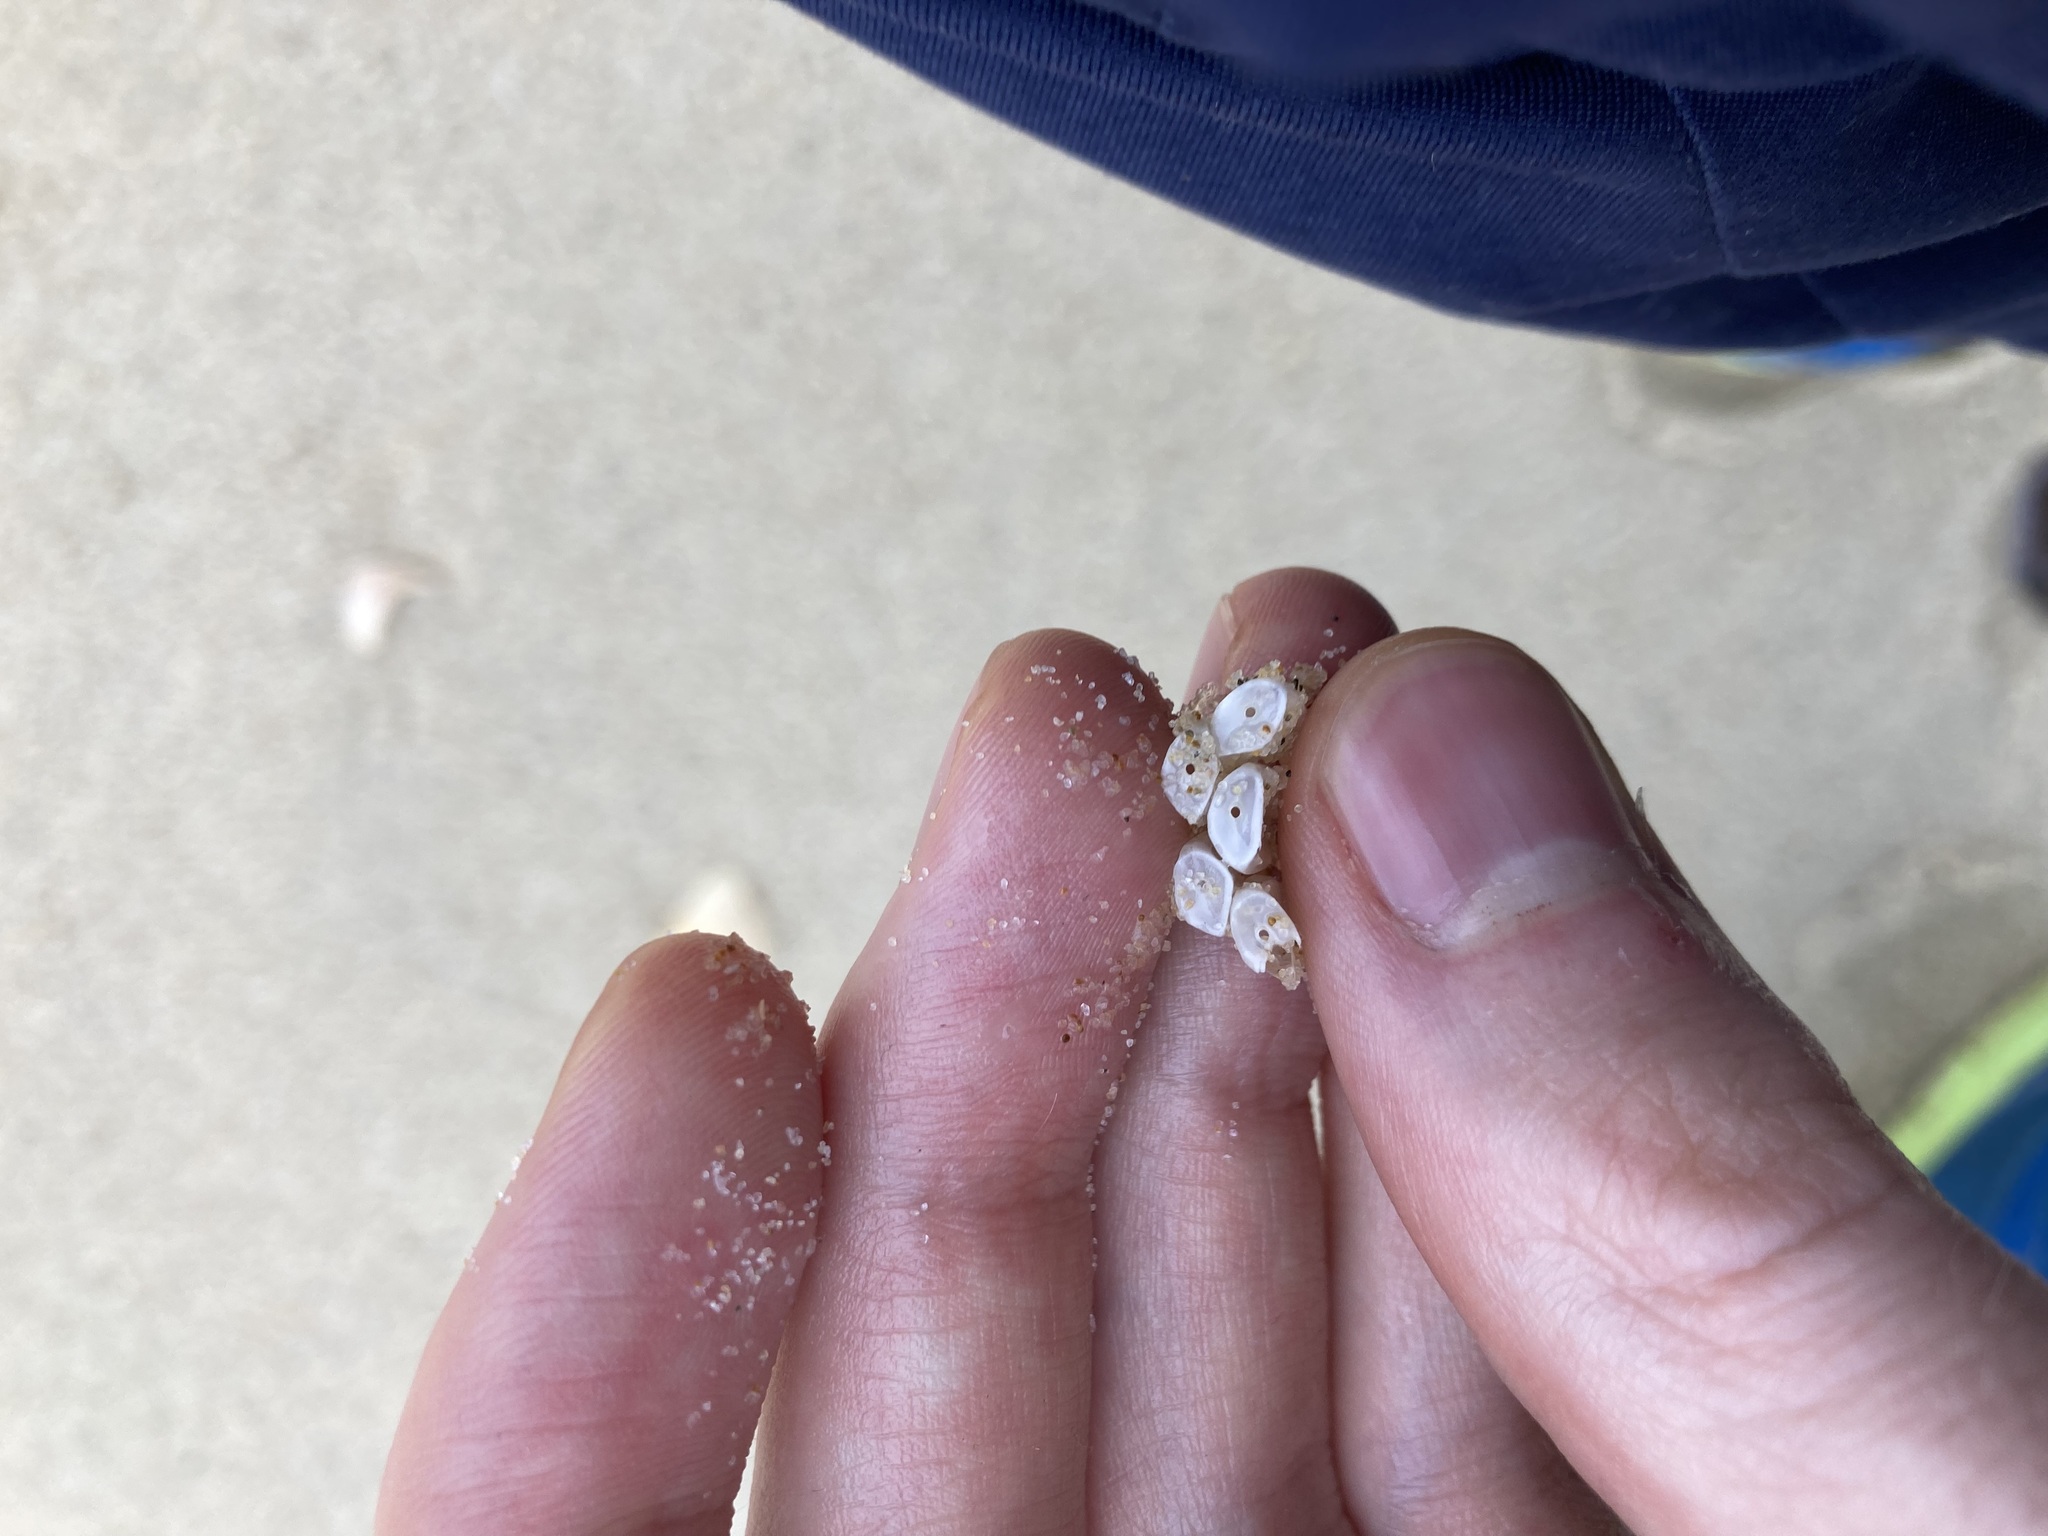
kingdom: Animalia
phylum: Mollusca
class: Gastropoda
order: Neogastropoda
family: Muricidae
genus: Dicathais
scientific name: Dicathais orbita
